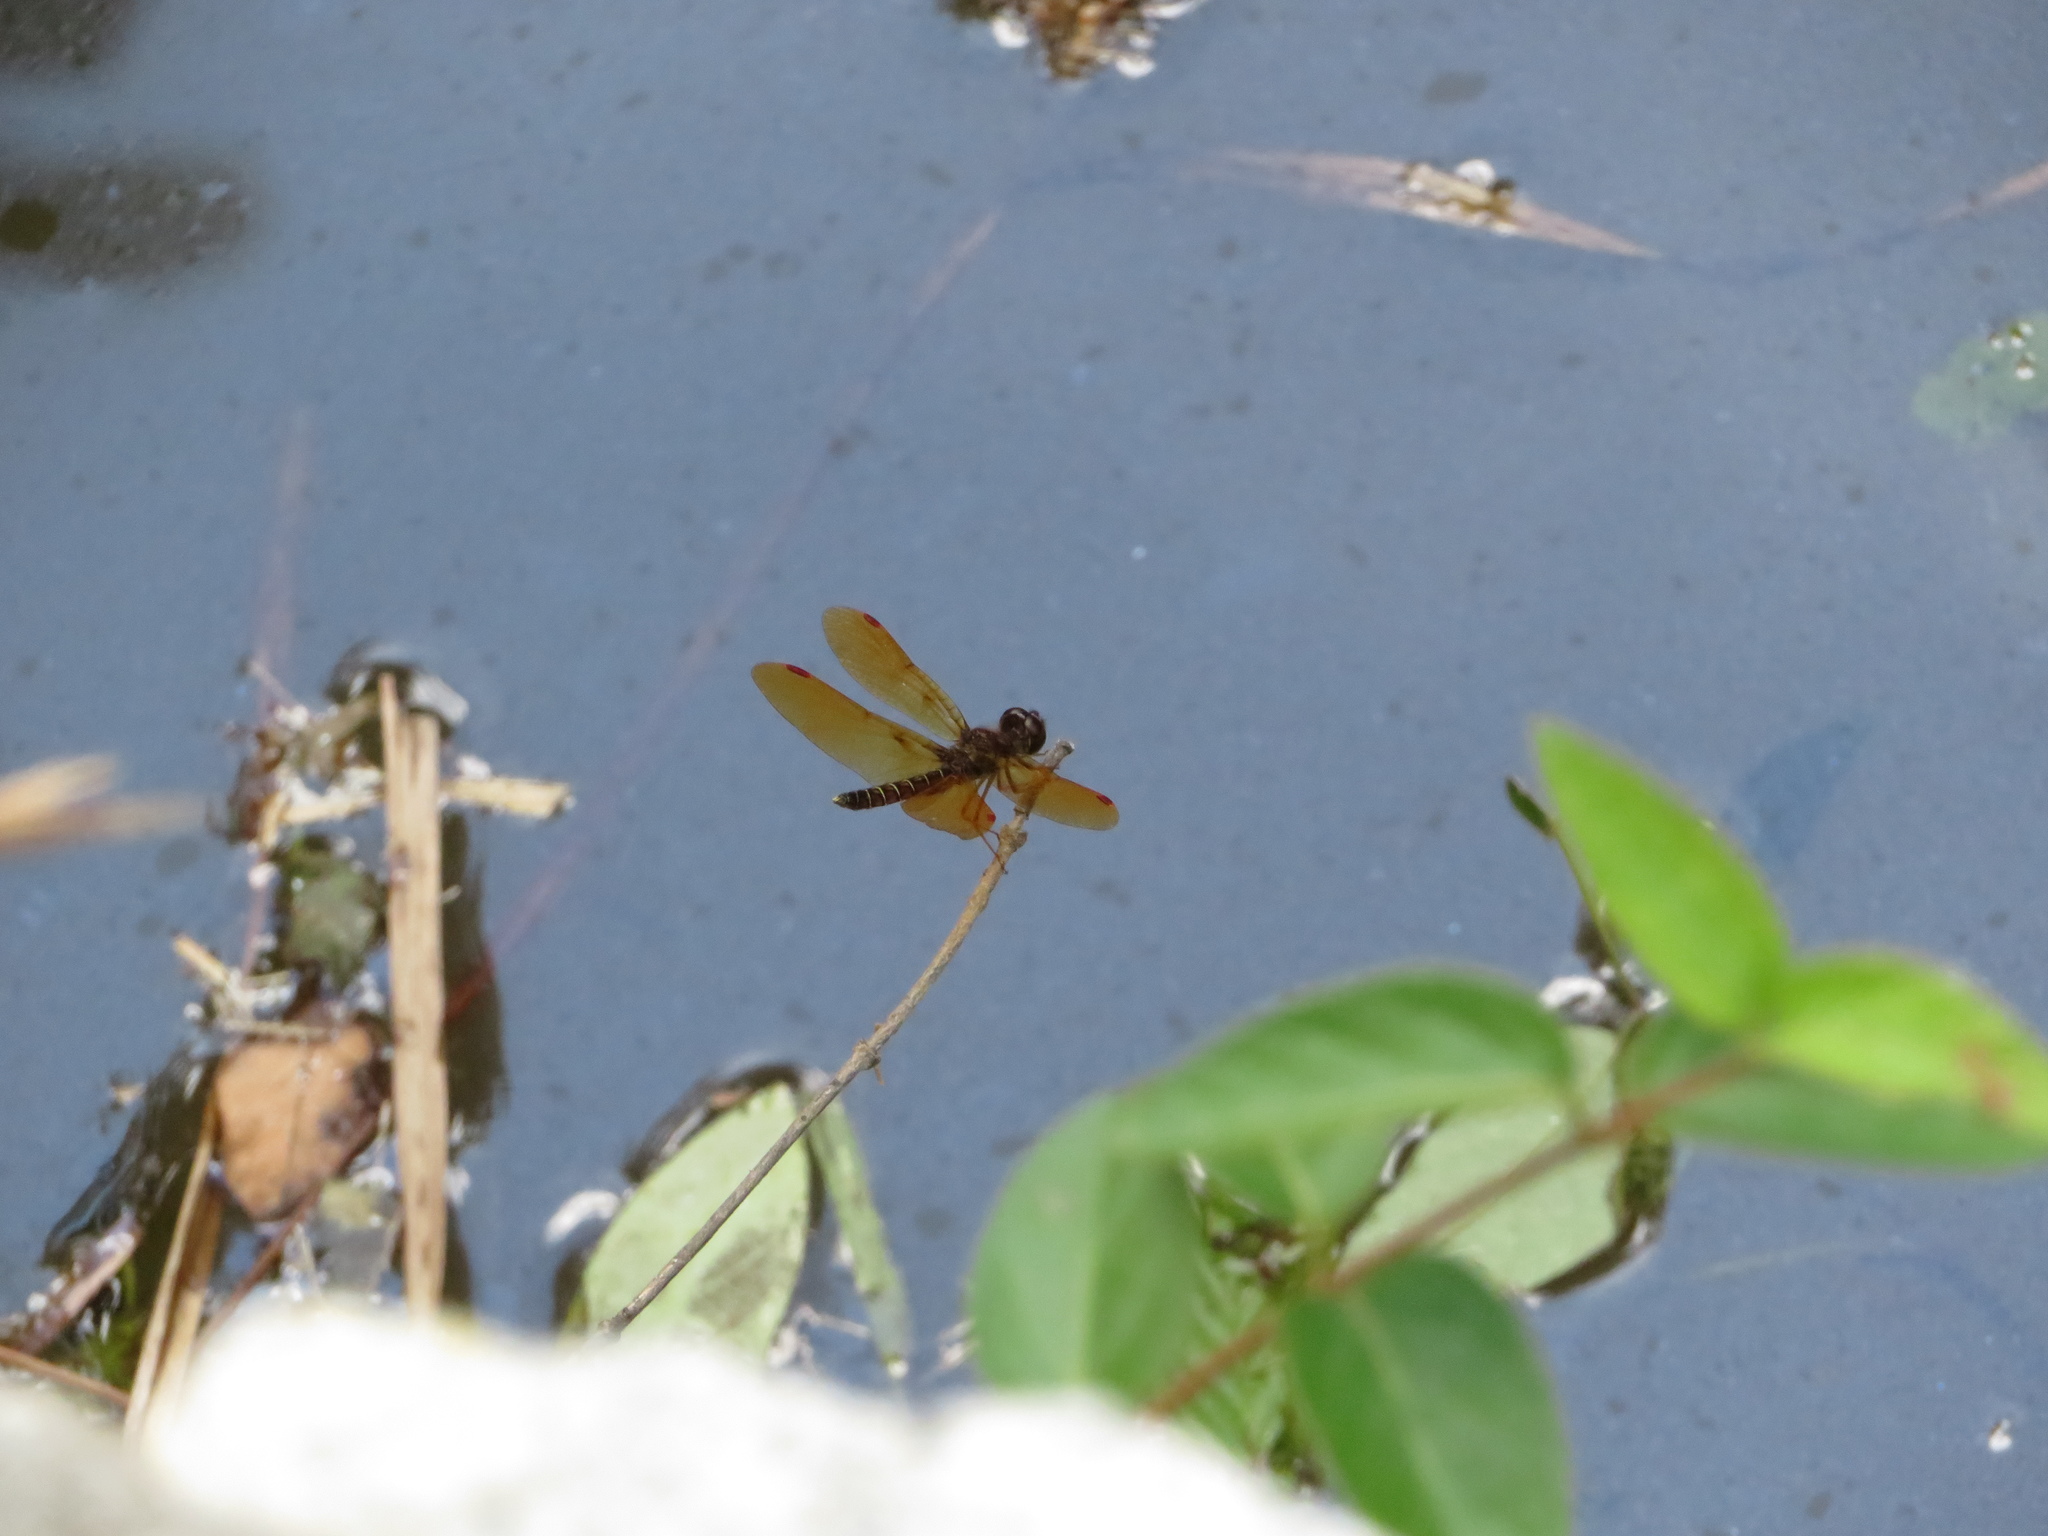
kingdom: Animalia
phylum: Arthropoda
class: Insecta
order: Odonata
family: Libellulidae
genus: Perithemis
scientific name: Perithemis tenera
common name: Eastern amberwing
